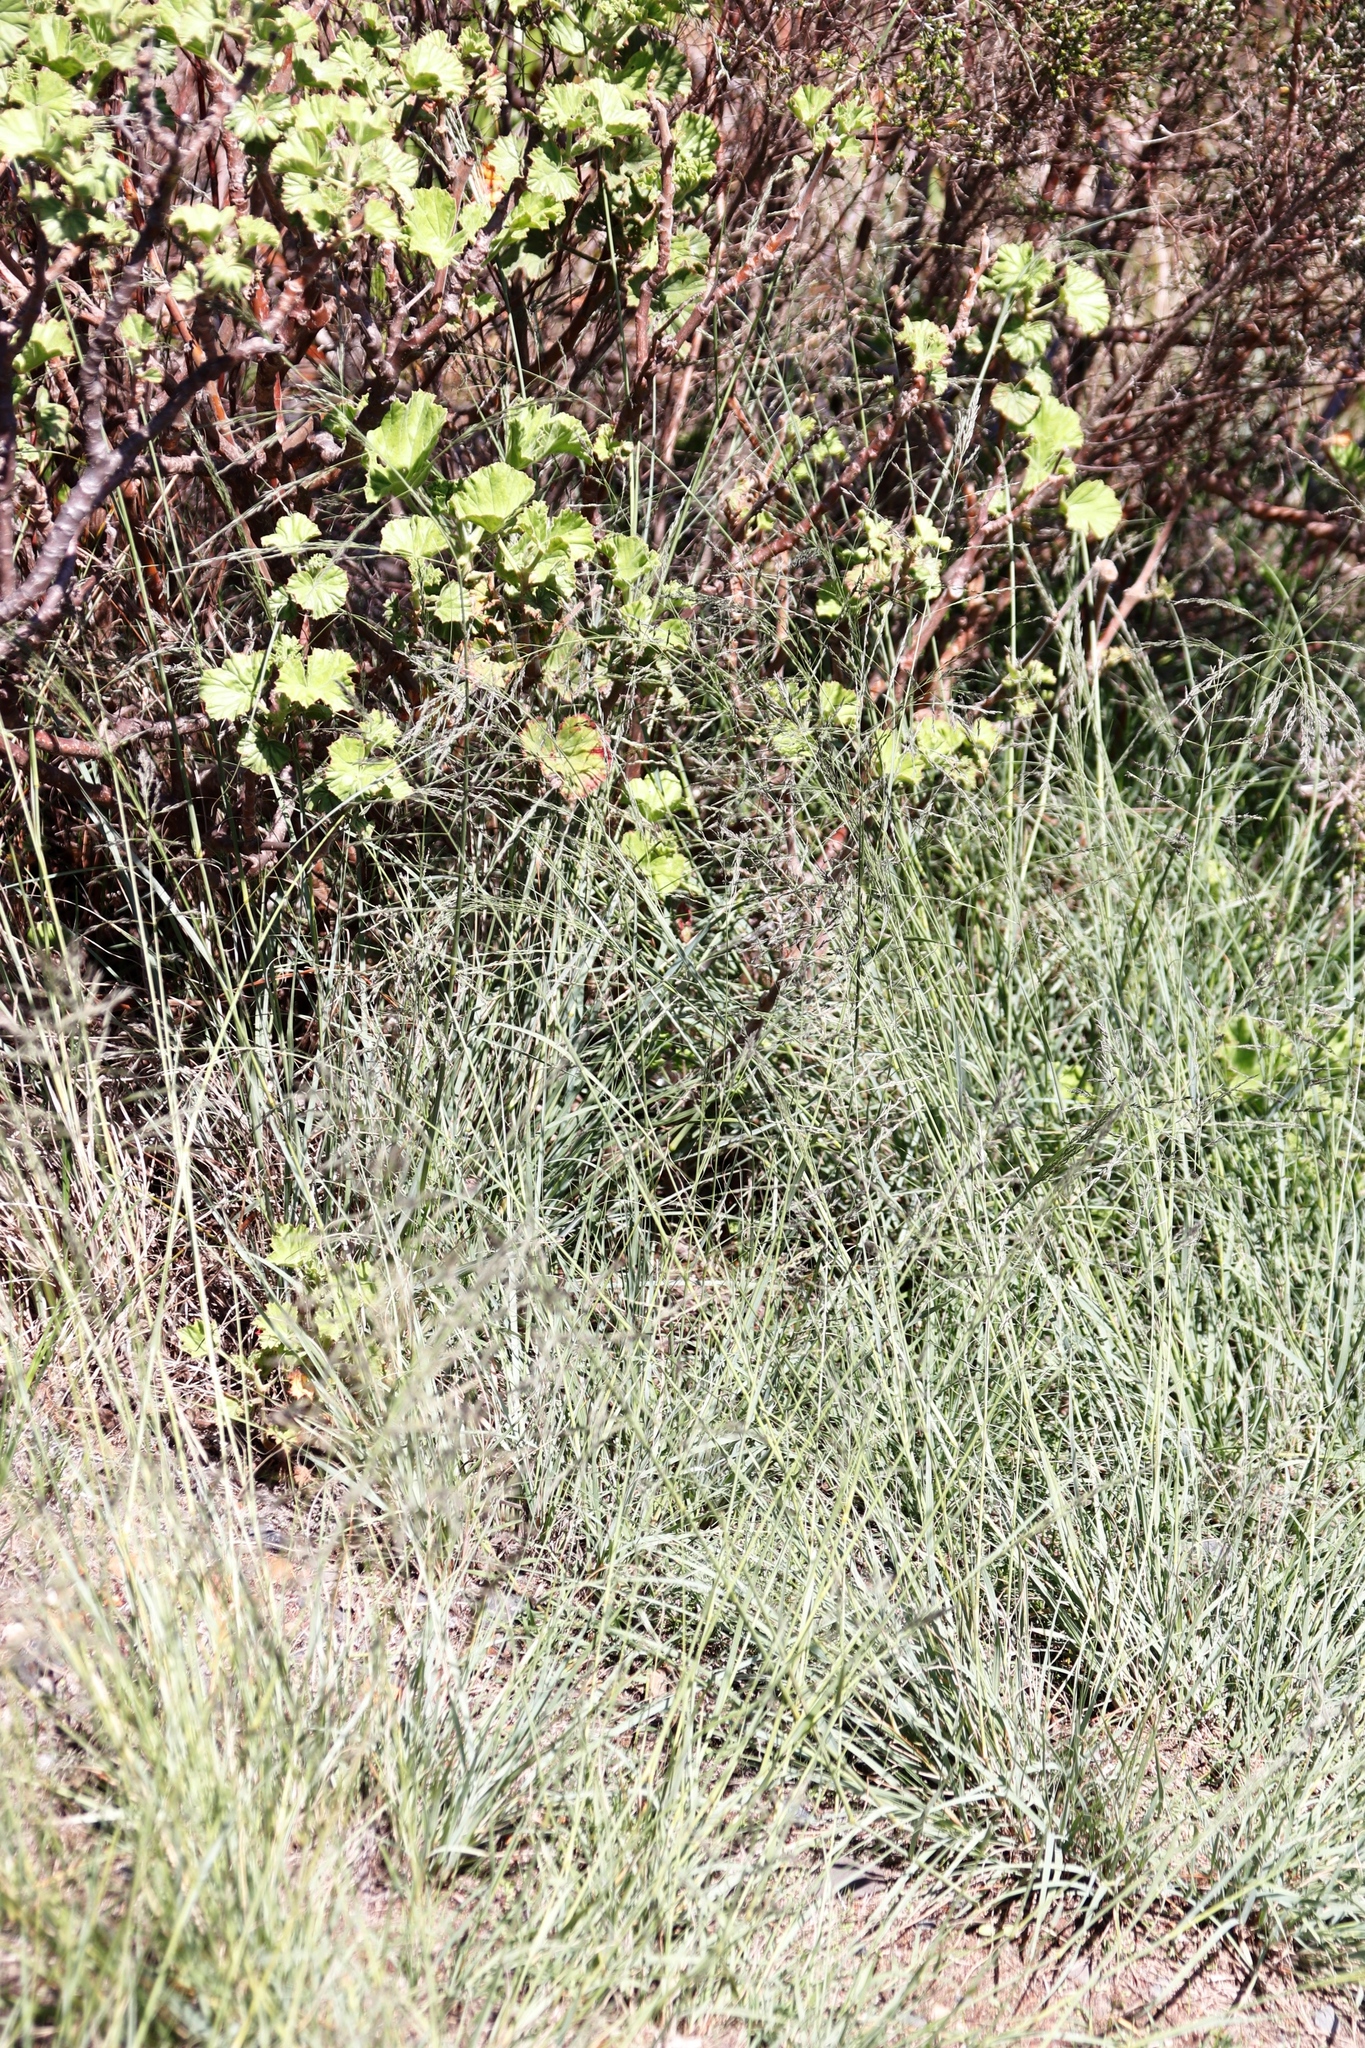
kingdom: Plantae
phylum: Tracheophyta
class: Magnoliopsida
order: Geraniales
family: Geraniaceae
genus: Pelargonium
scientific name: Pelargonium cucullatum
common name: Tree pelargonium
